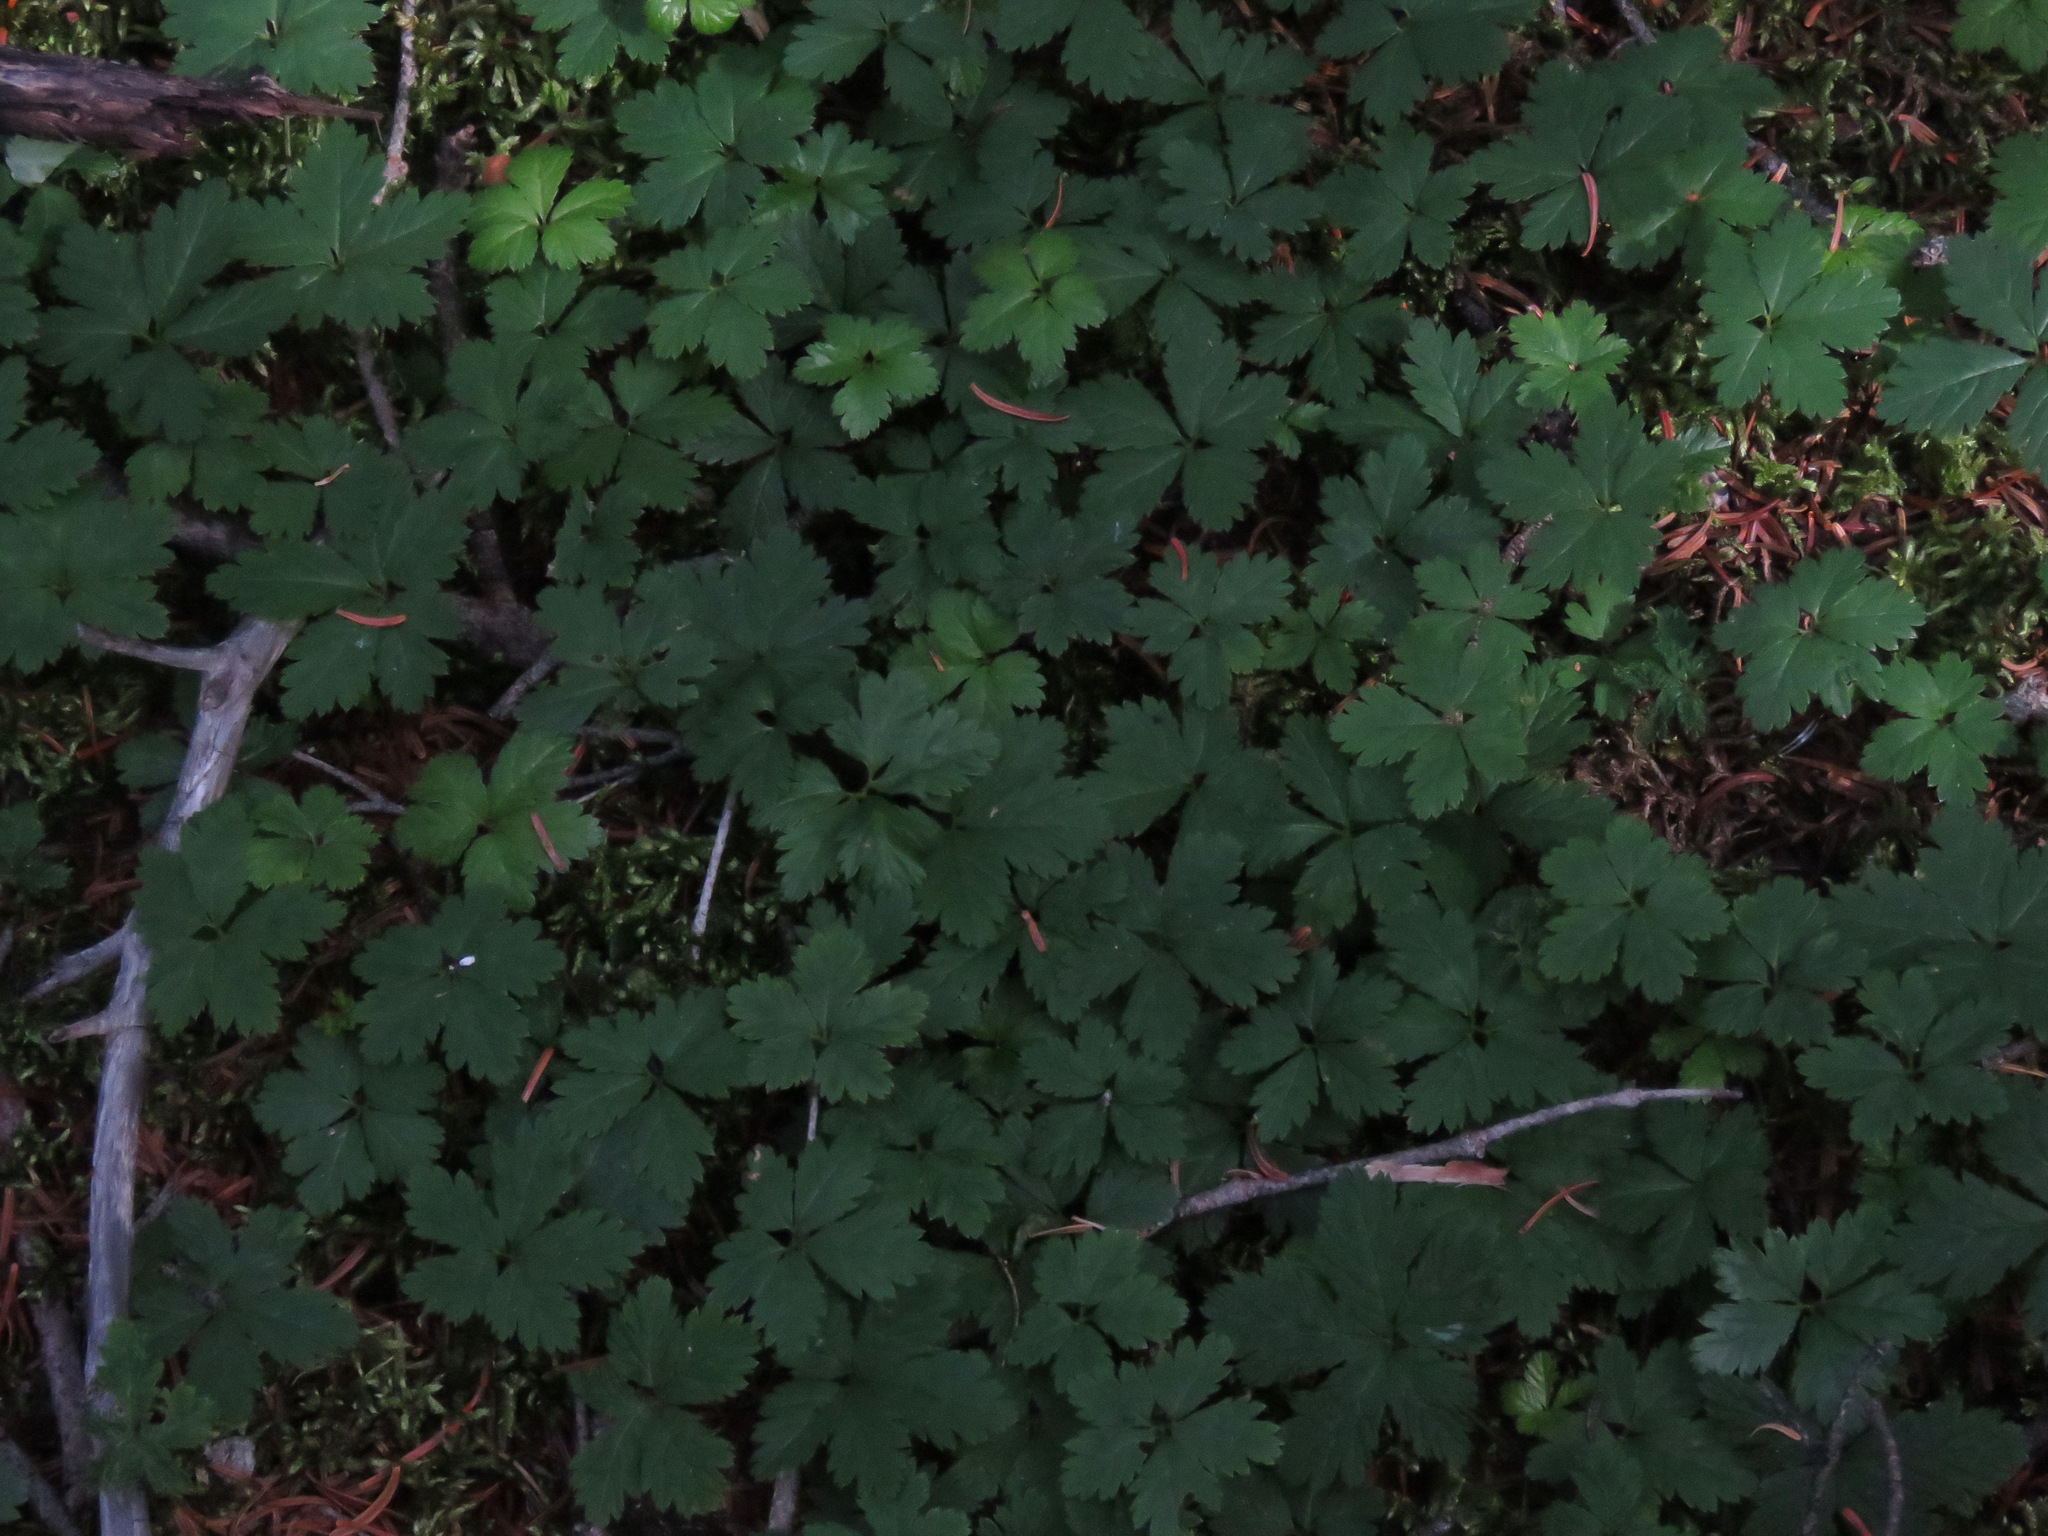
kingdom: Plantae
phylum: Tracheophyta
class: Magnoliopsida
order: Rosales
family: Rosaceae
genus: Rubus
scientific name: Rubus pedatus
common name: Creeping raspberry
